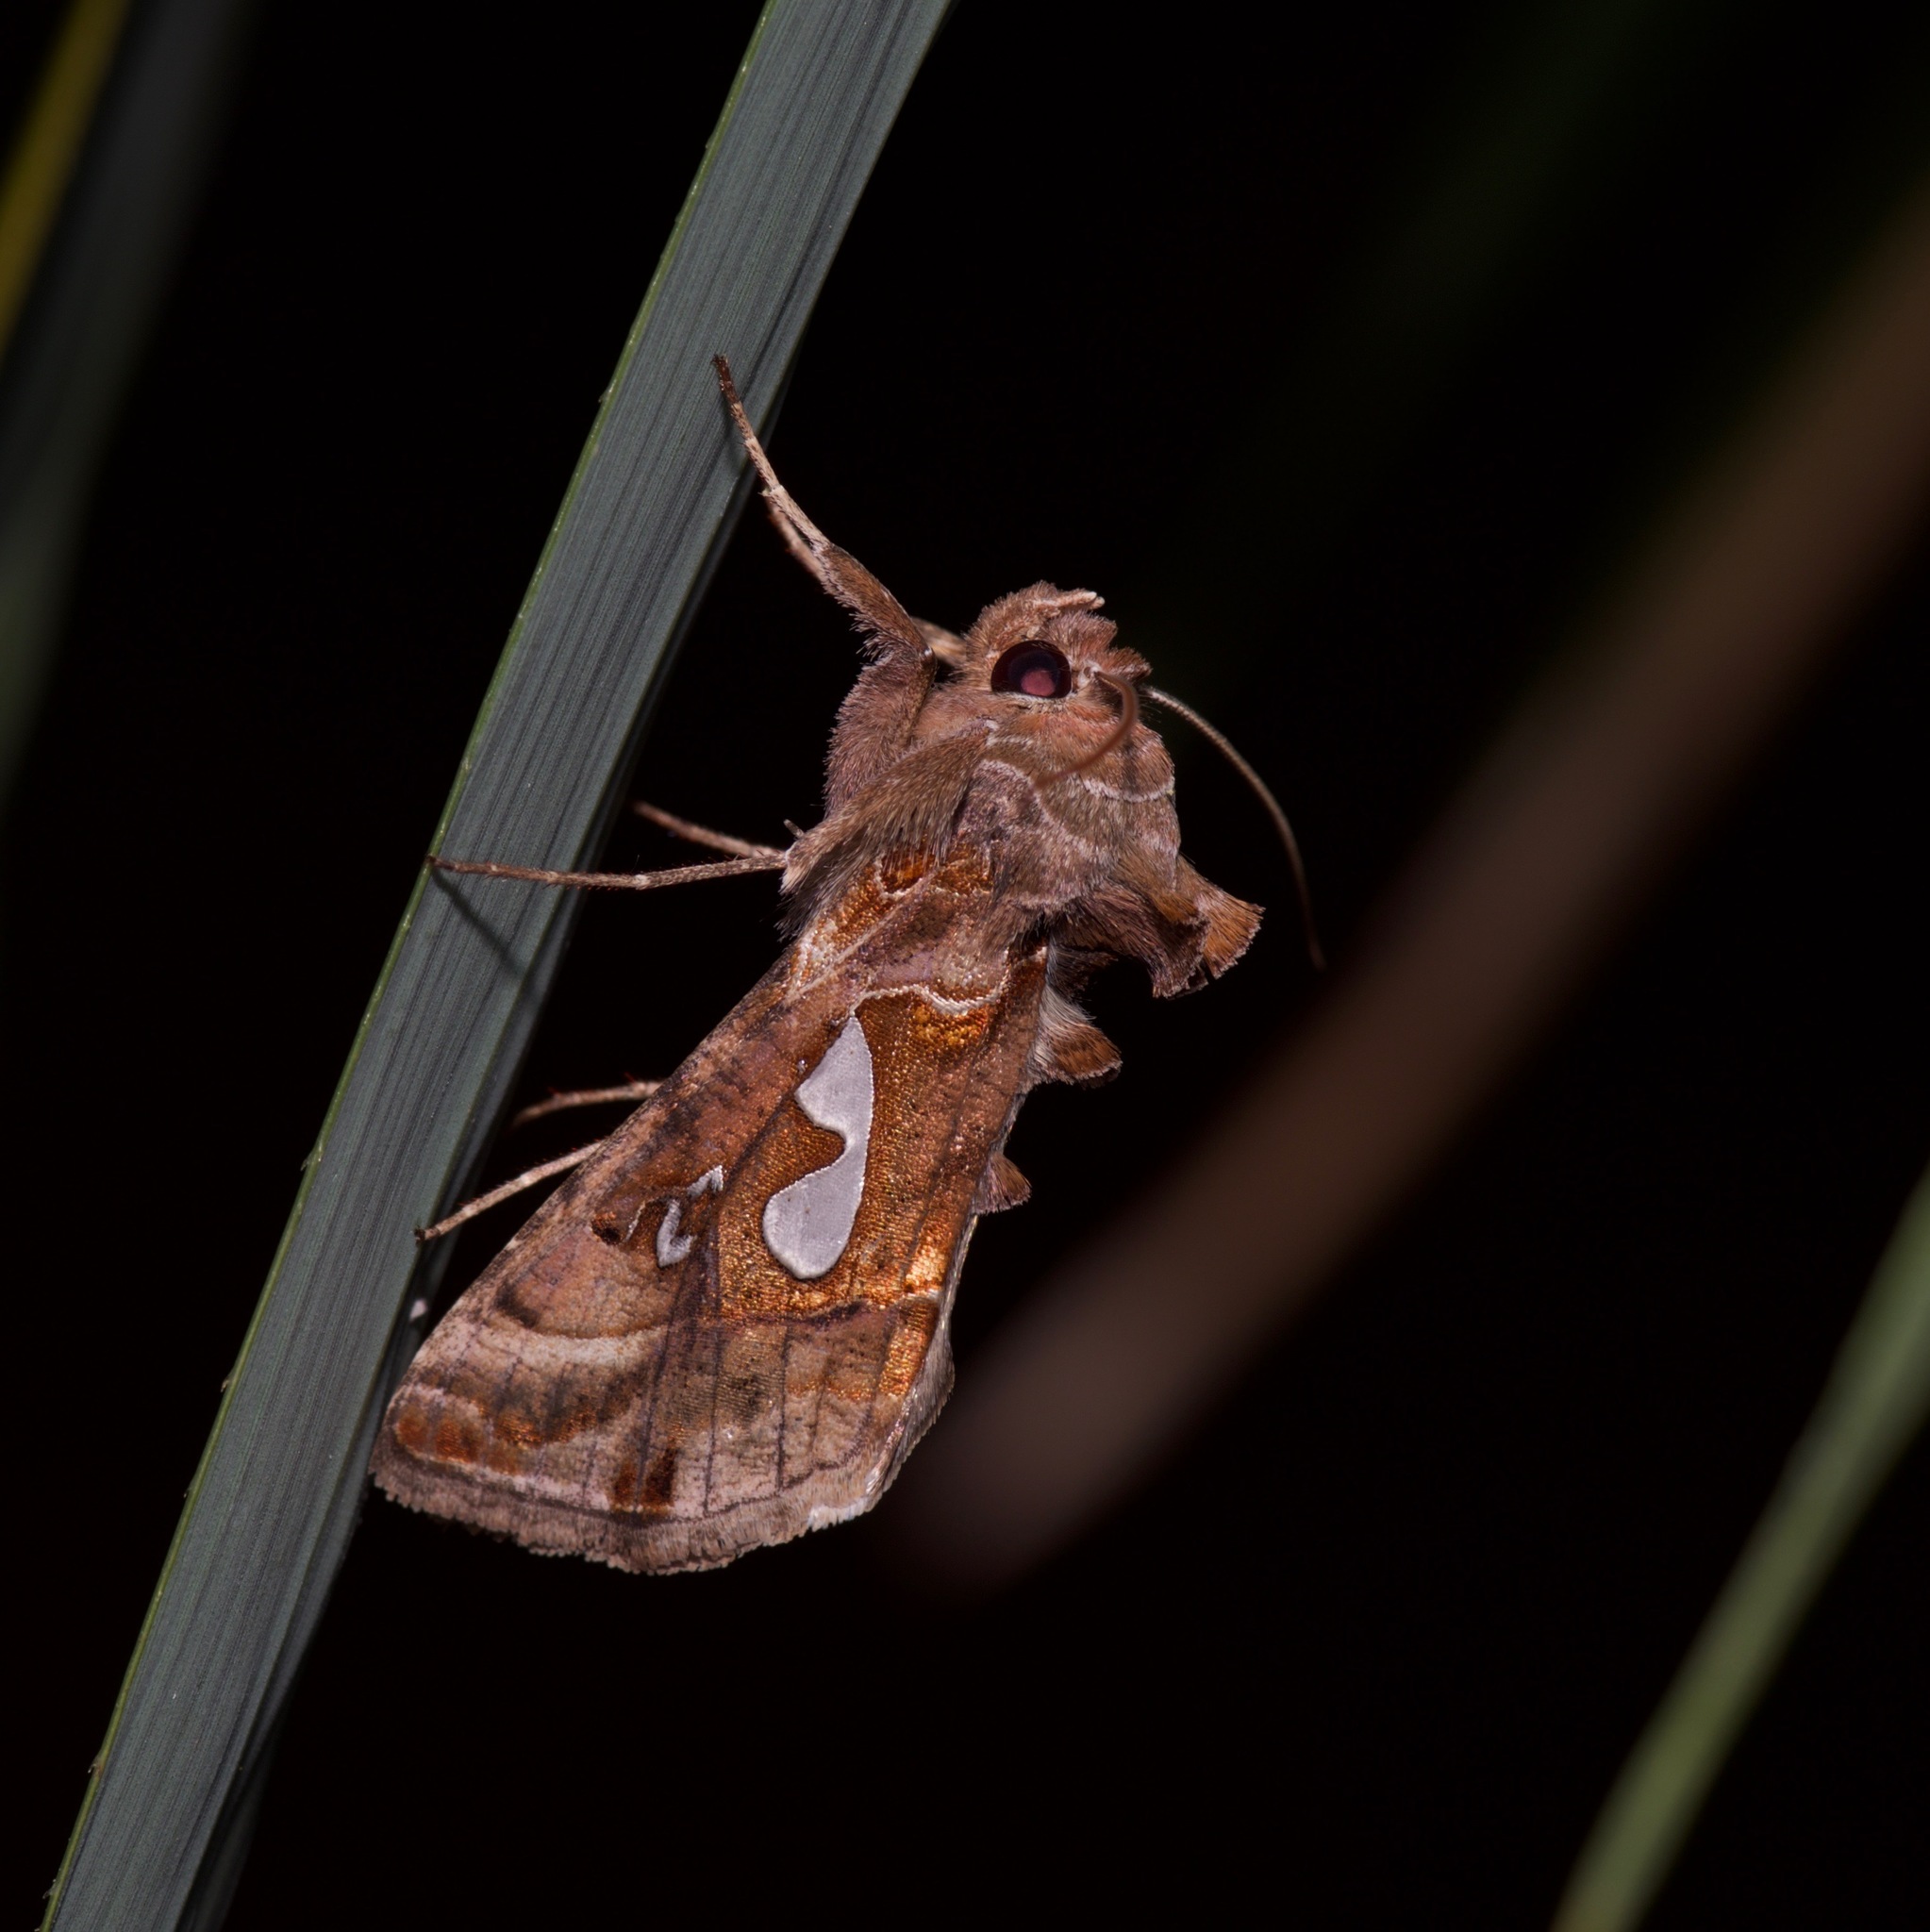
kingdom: Animalia
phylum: Arthropoda
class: Insecta
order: Lepidoptera
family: Noctuidae
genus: Megalographa
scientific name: Megalographa biloba
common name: Cutworm
